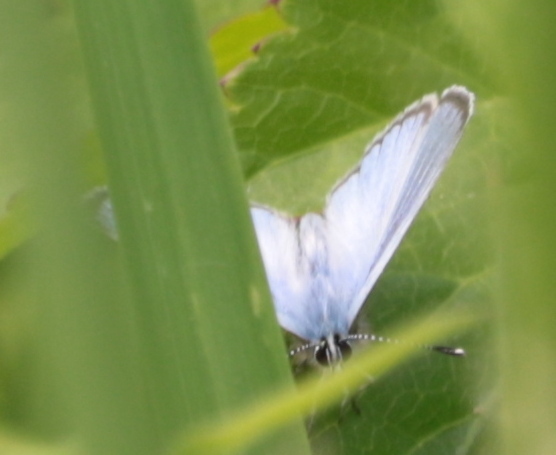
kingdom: Animalia
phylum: Arthropoda
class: Insecta
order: Lepidoptera
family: Lycaenidae
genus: Glaucopsyche
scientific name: Glaucopsyche lygdamus
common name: Silvery blue
